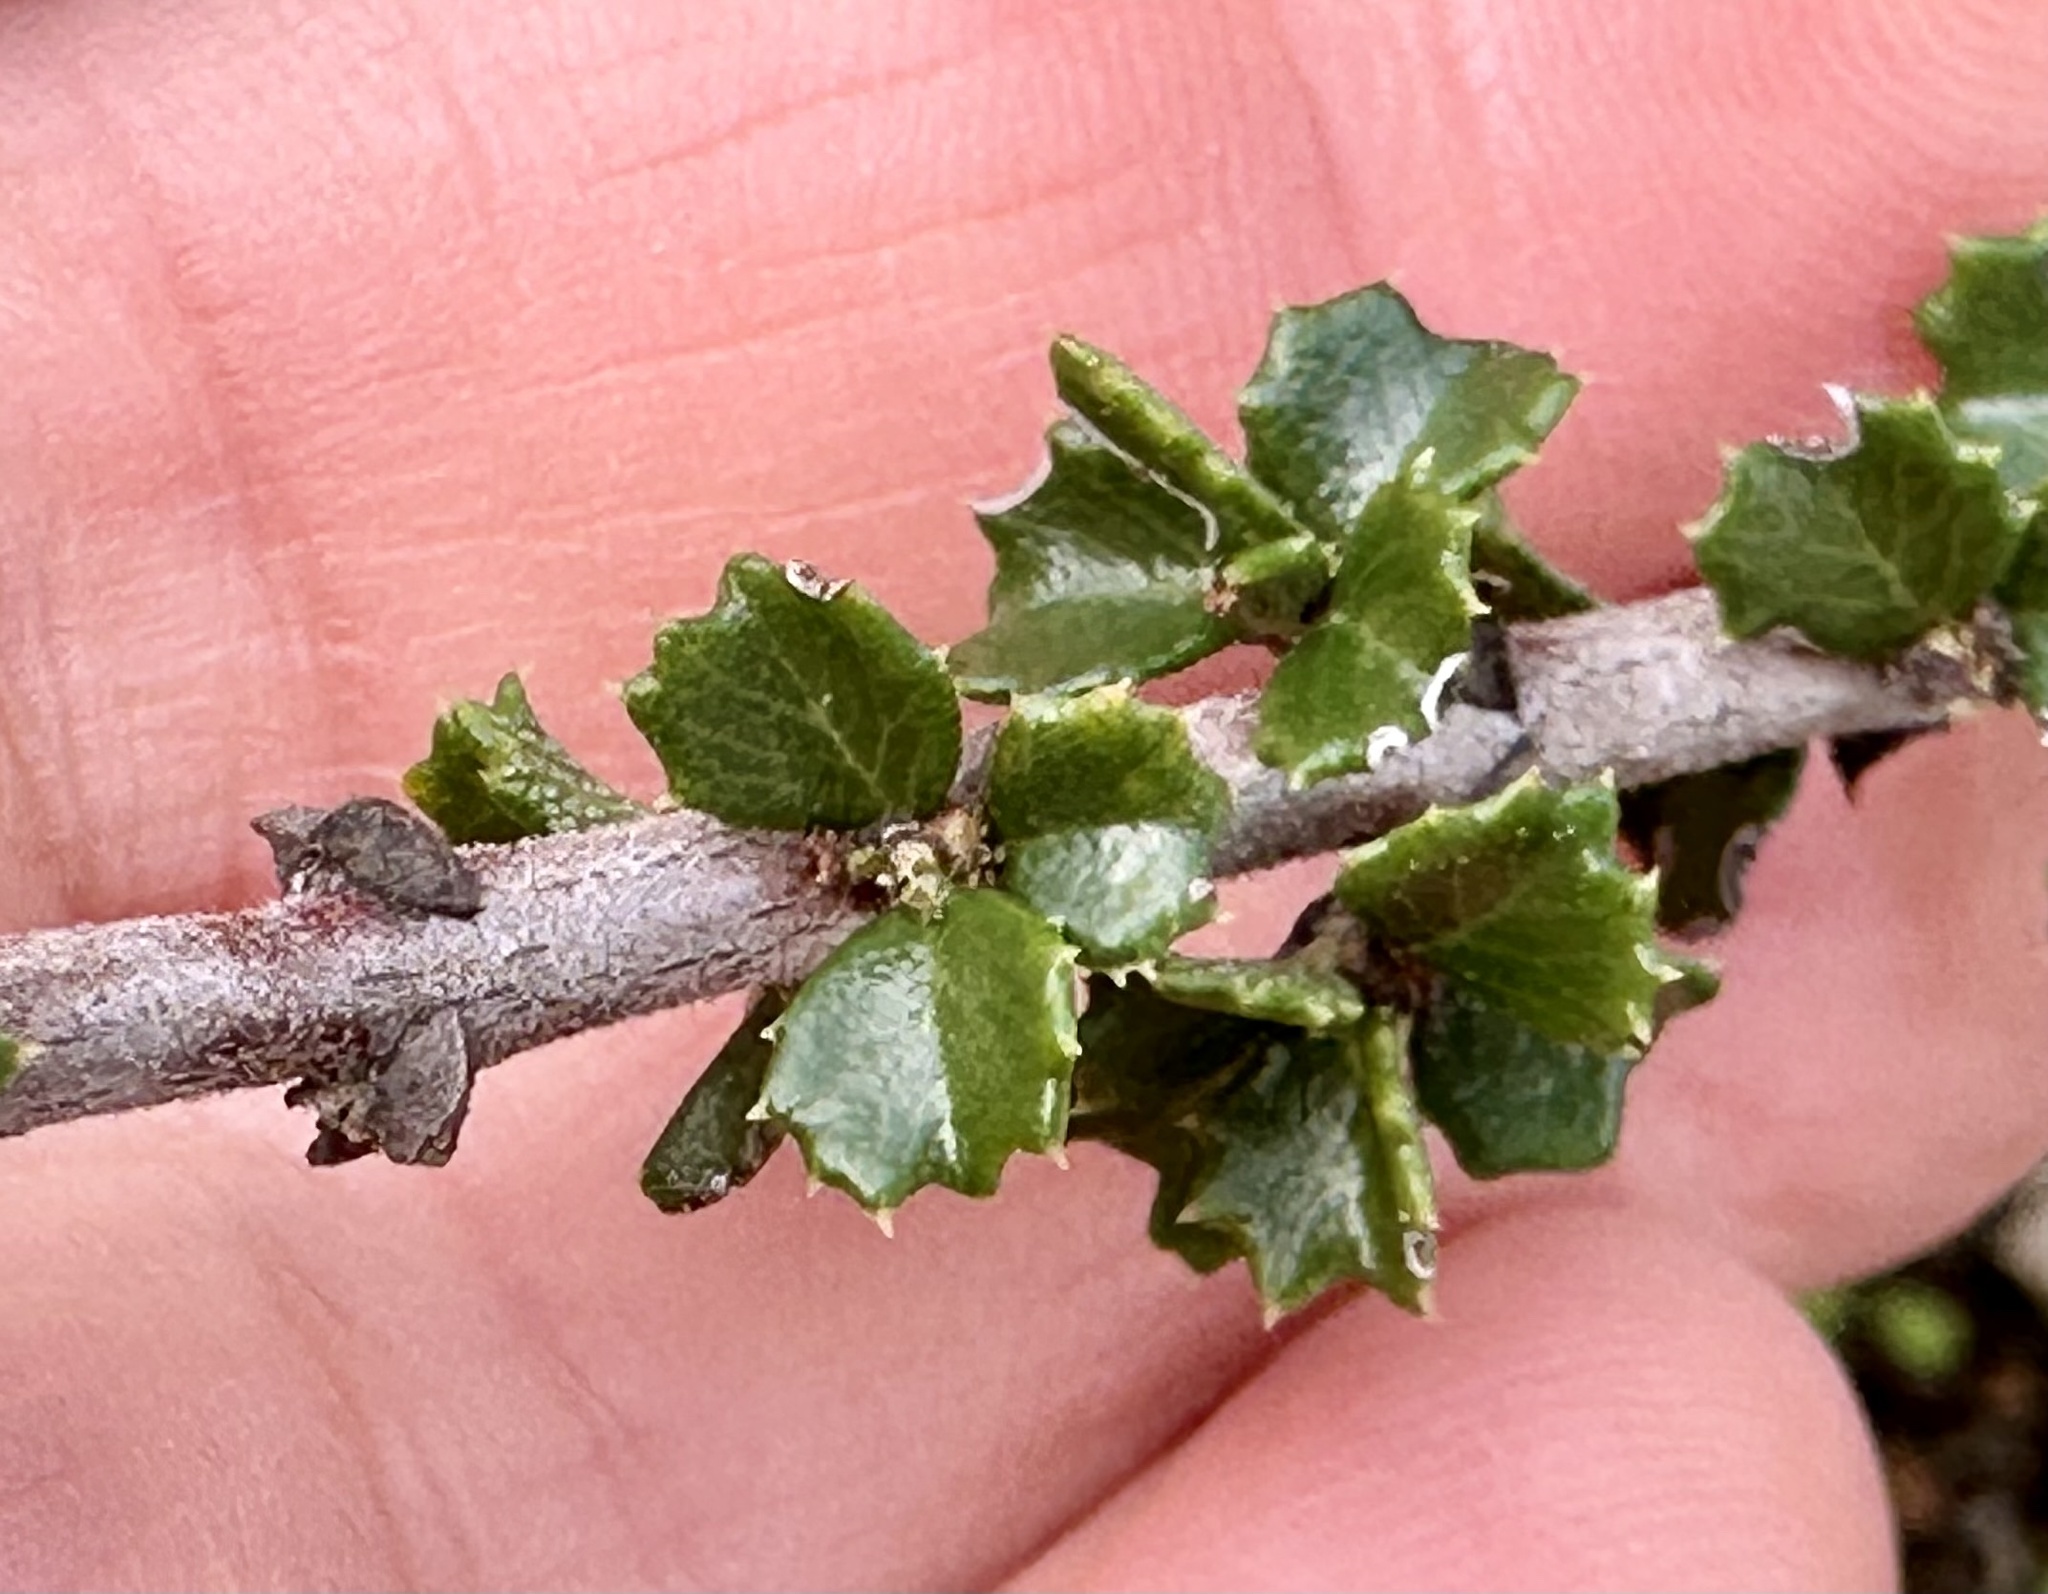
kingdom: Plantae
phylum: Tracheophyta
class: Magnoliopsida
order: Rosales
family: Rhamnaceae
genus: Ceanothus
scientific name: Ceanothus cuneatus
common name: Cuneate ceanothus
